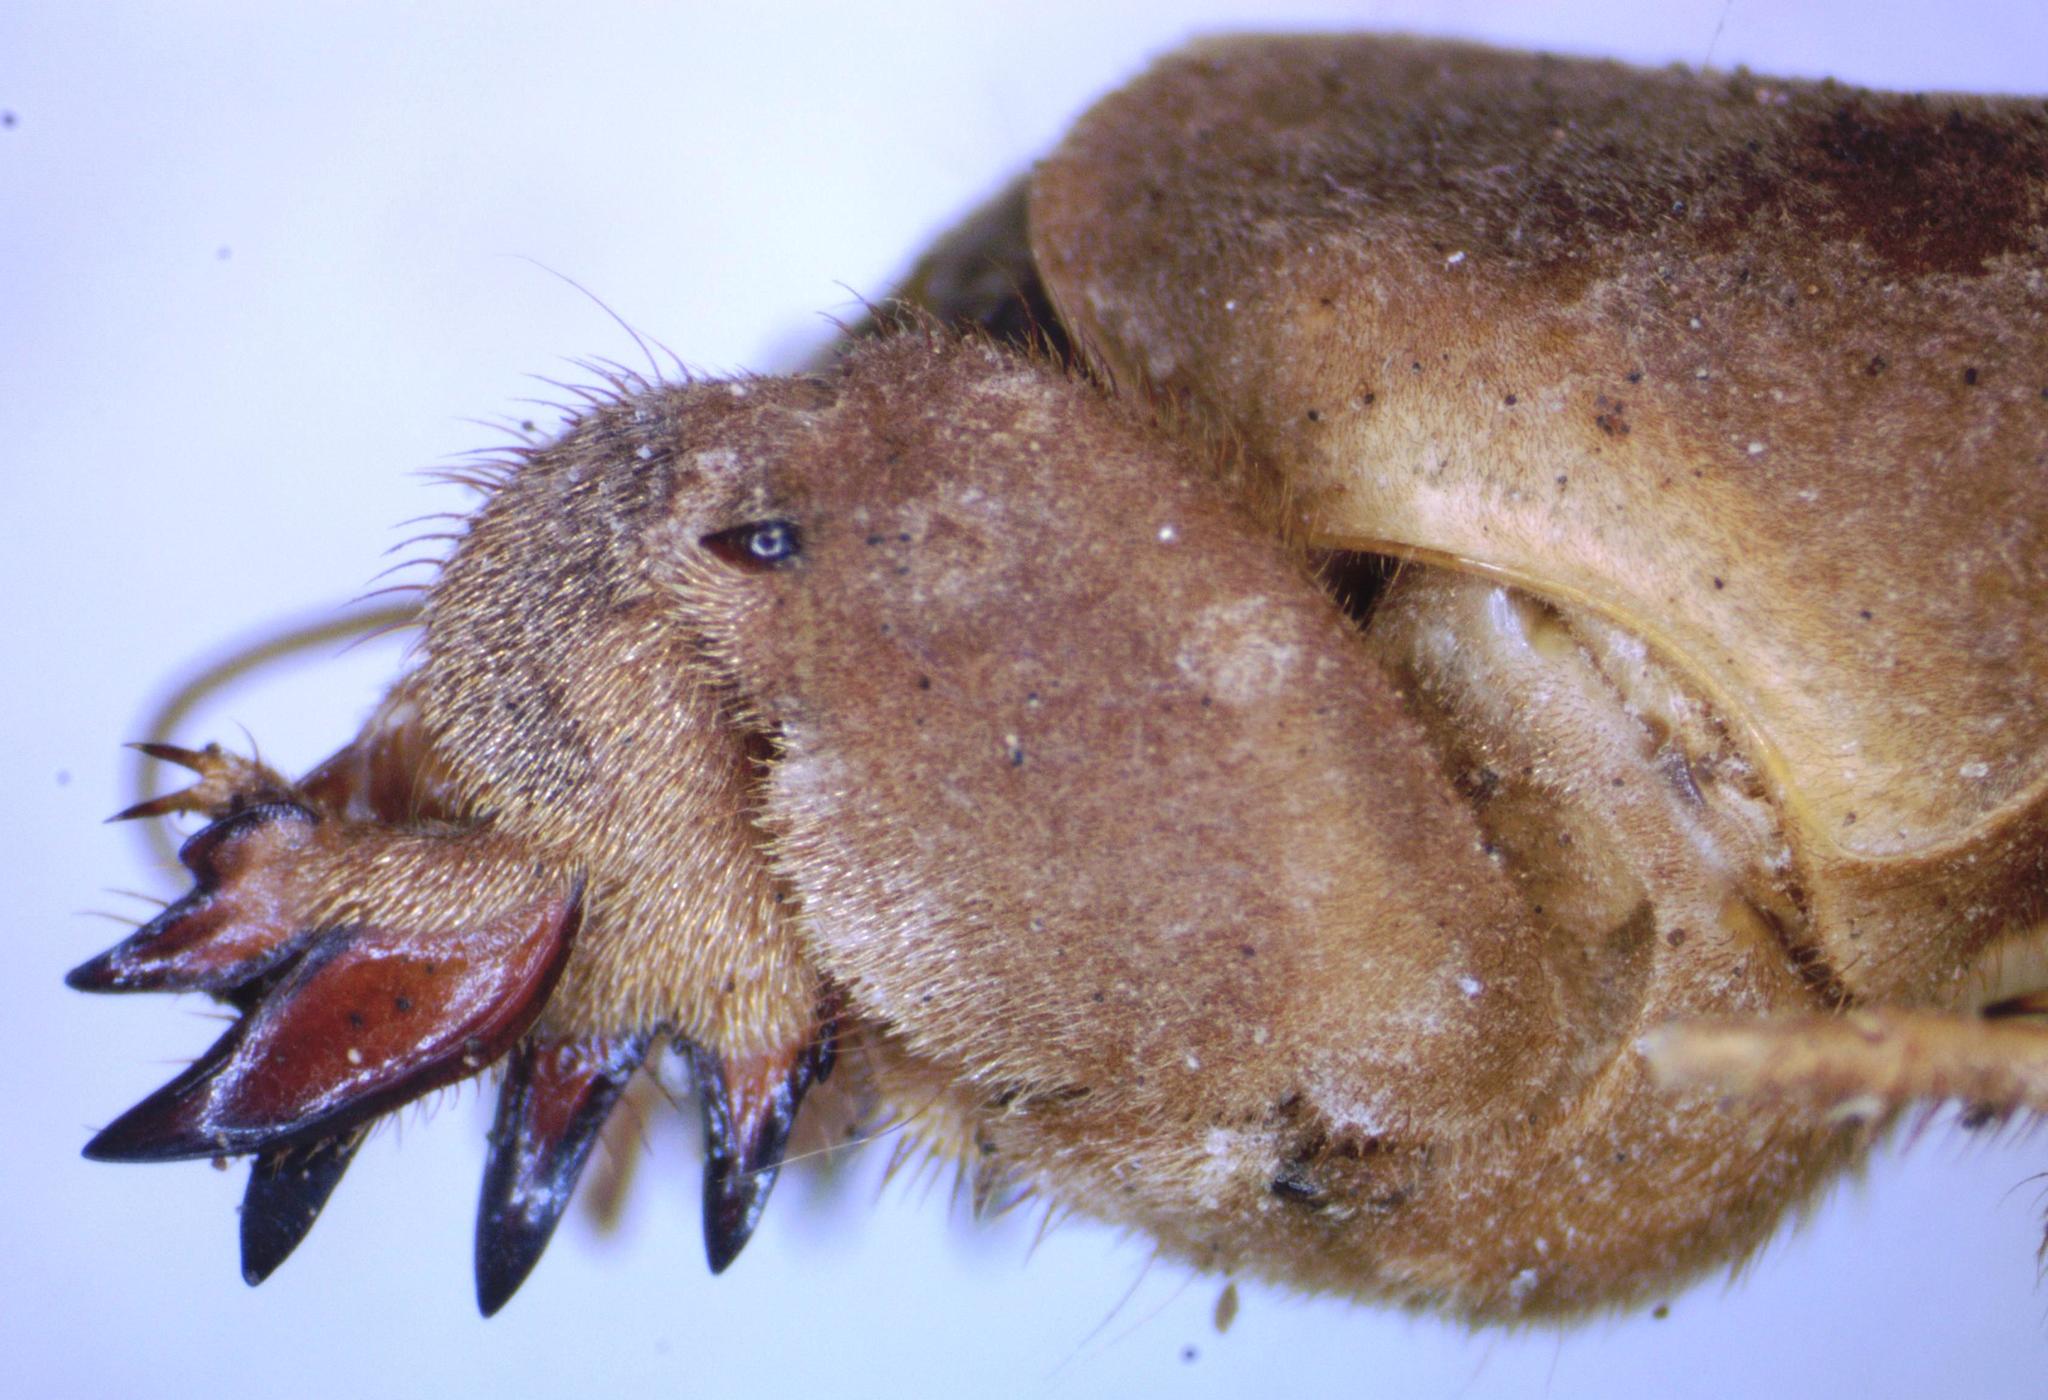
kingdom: Animalia
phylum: Arthropoda
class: Insecta
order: Orthoptera
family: Gryllotalpidae
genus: Neocurtilla
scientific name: Neocurtilla hexadactyla
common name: Northern mole cricket
